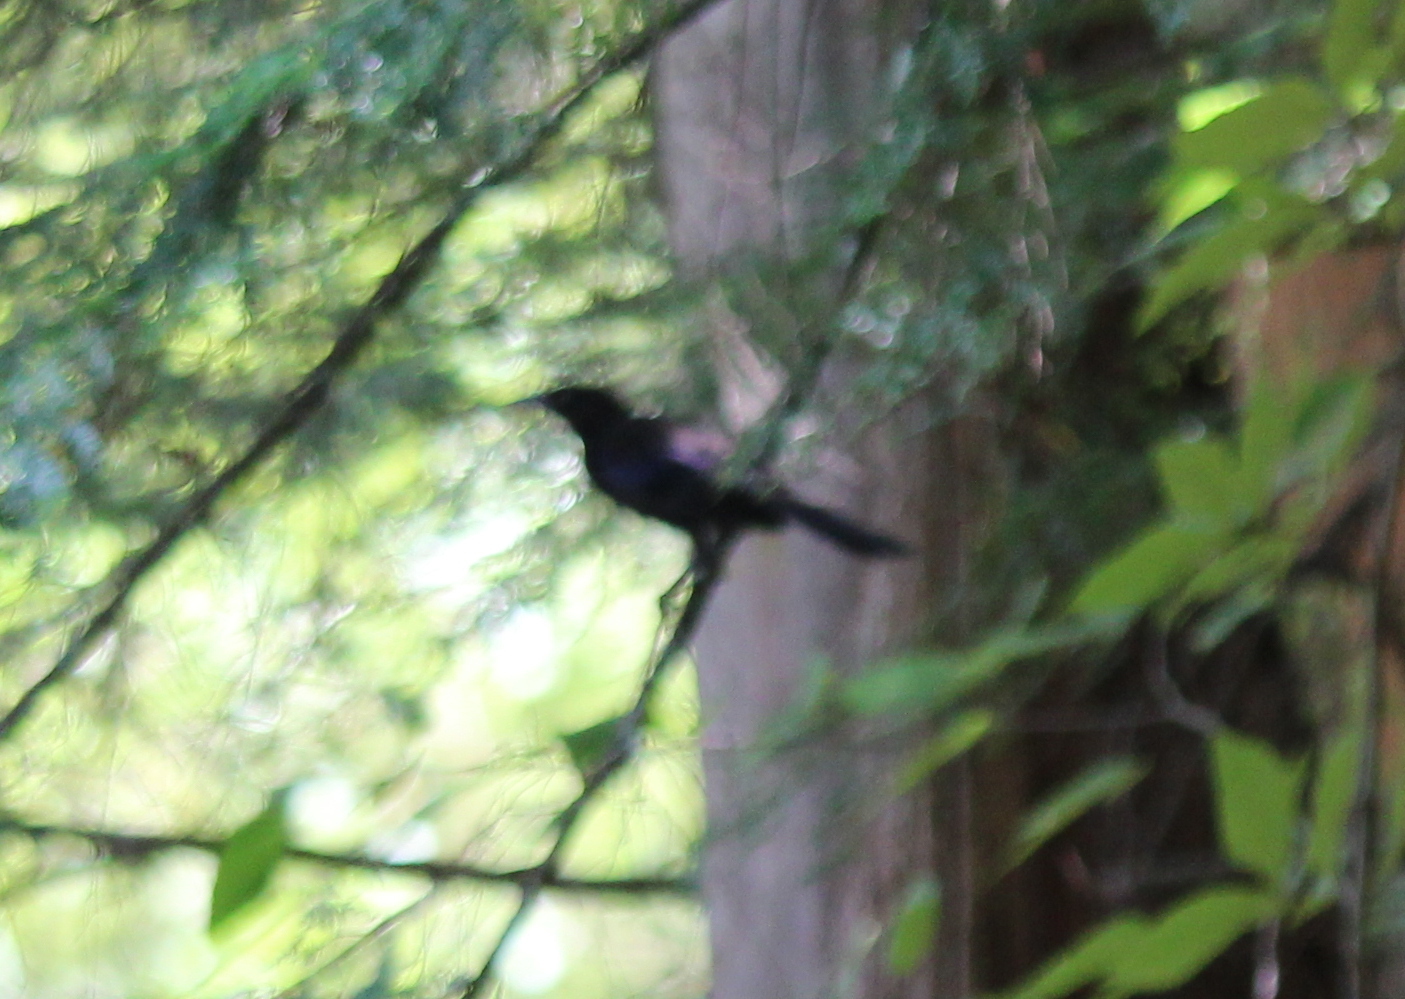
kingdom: Animalia
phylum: Chordata
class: Aves
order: Passeriformes
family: Icteridae
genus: Quiscalus
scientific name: Quiscalus quiscula
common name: Common grackle
